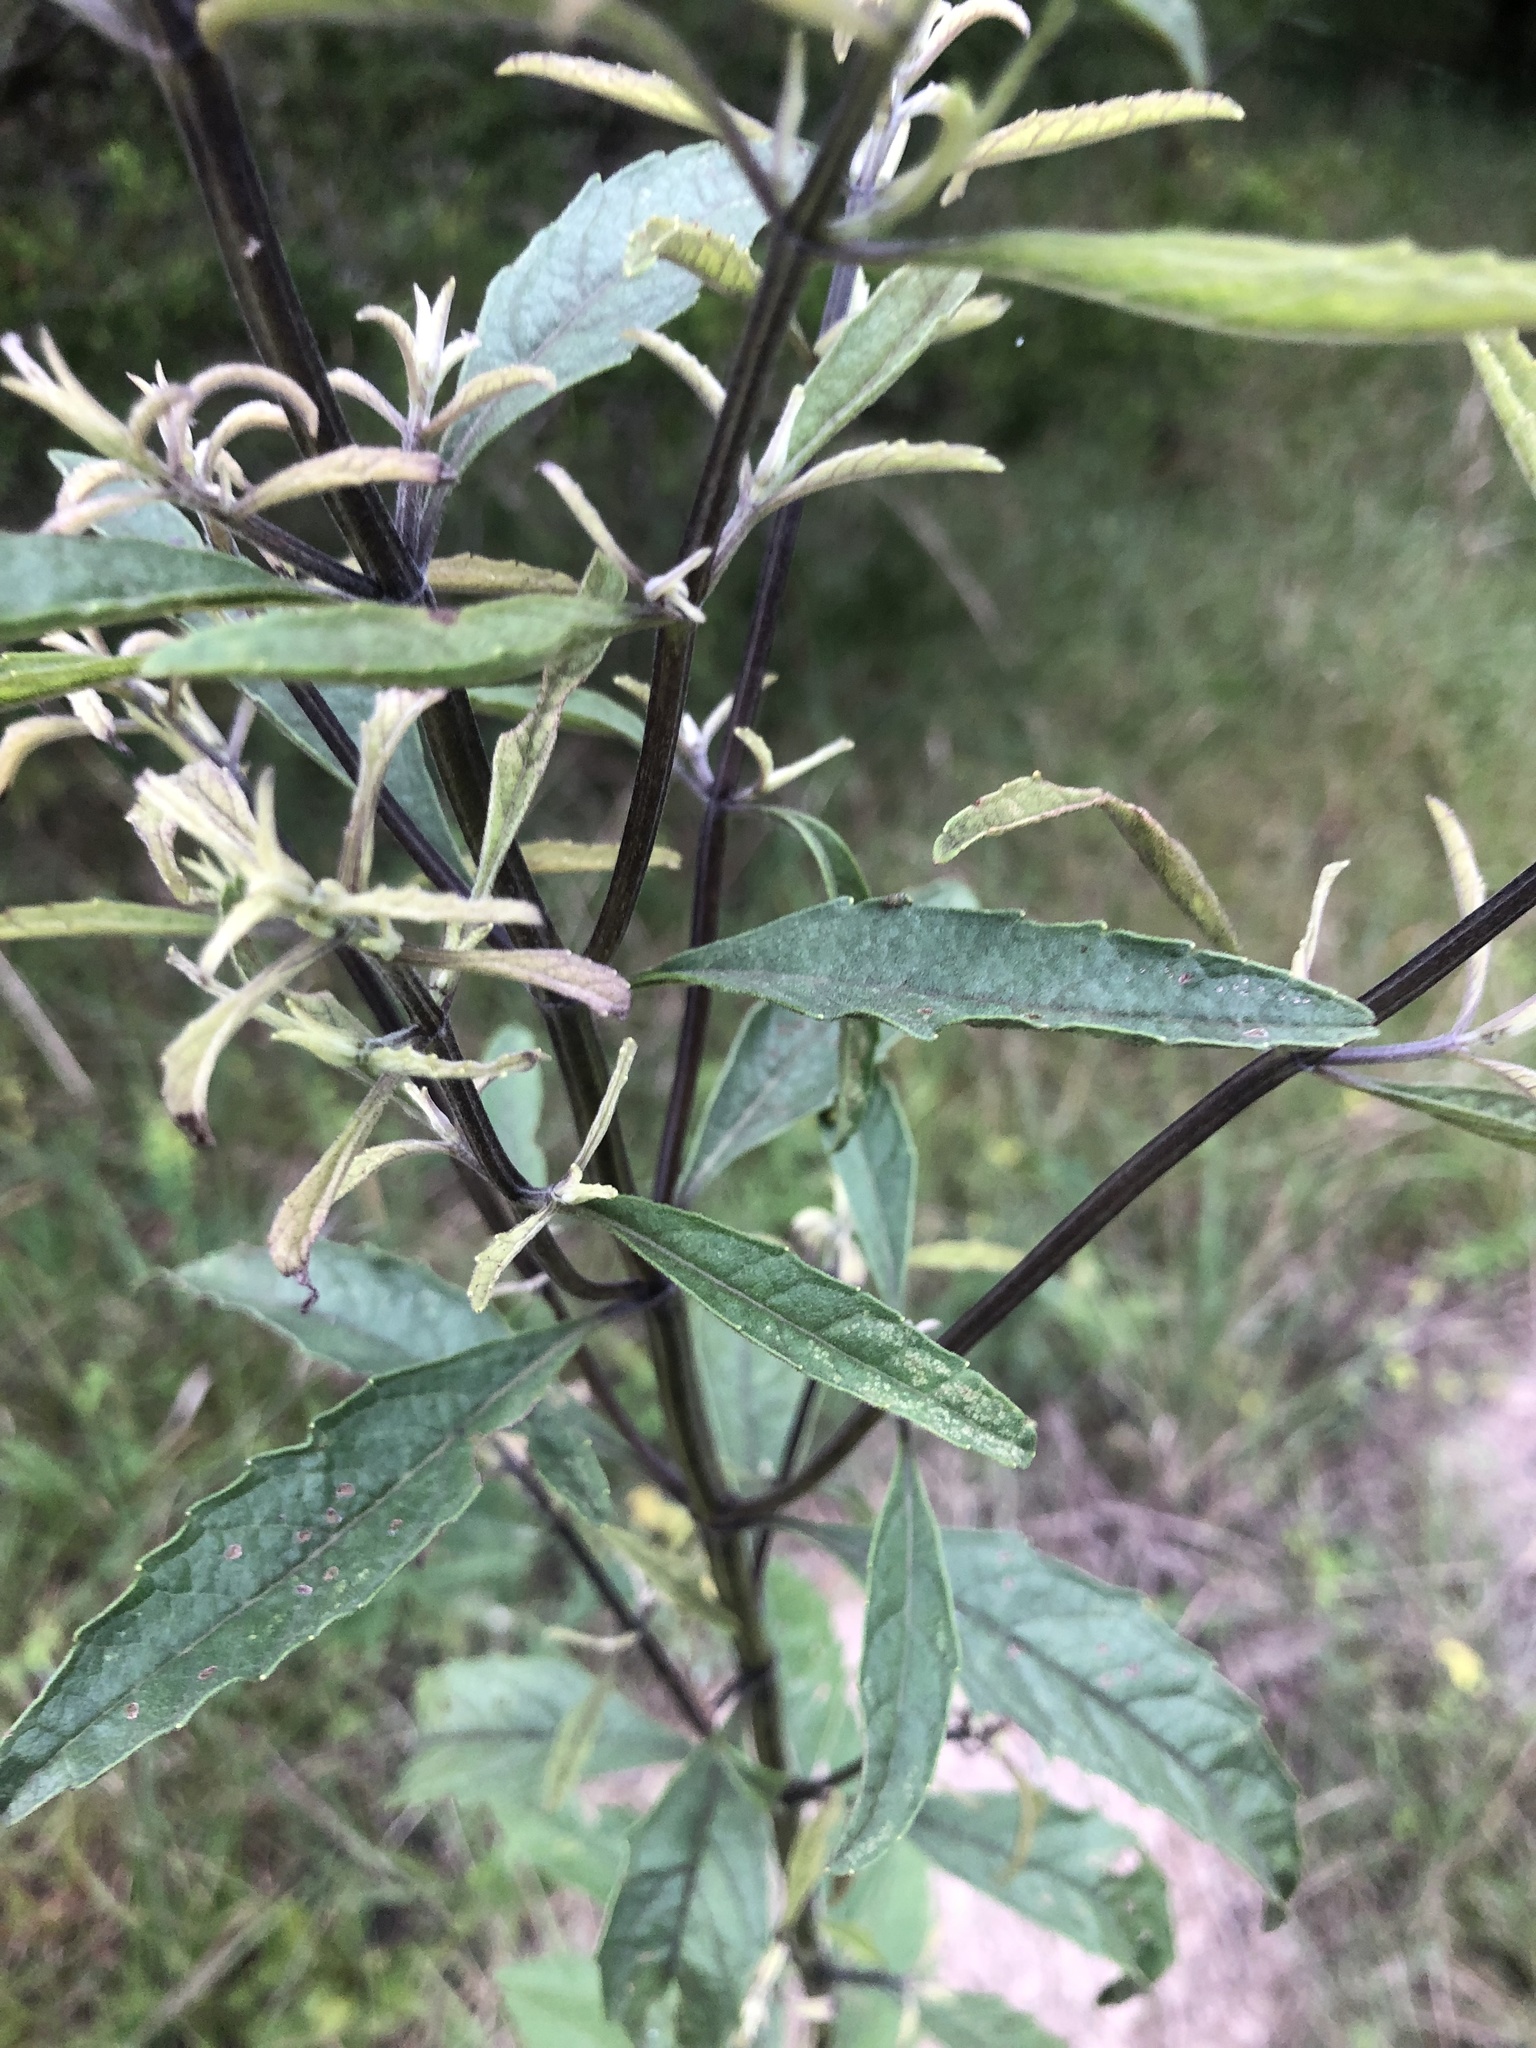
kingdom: Plantae
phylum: Tracheophyta
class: Magnoliopsida
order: Lamiales
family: Lamiaceae
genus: Salvia
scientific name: Salvia azurea
